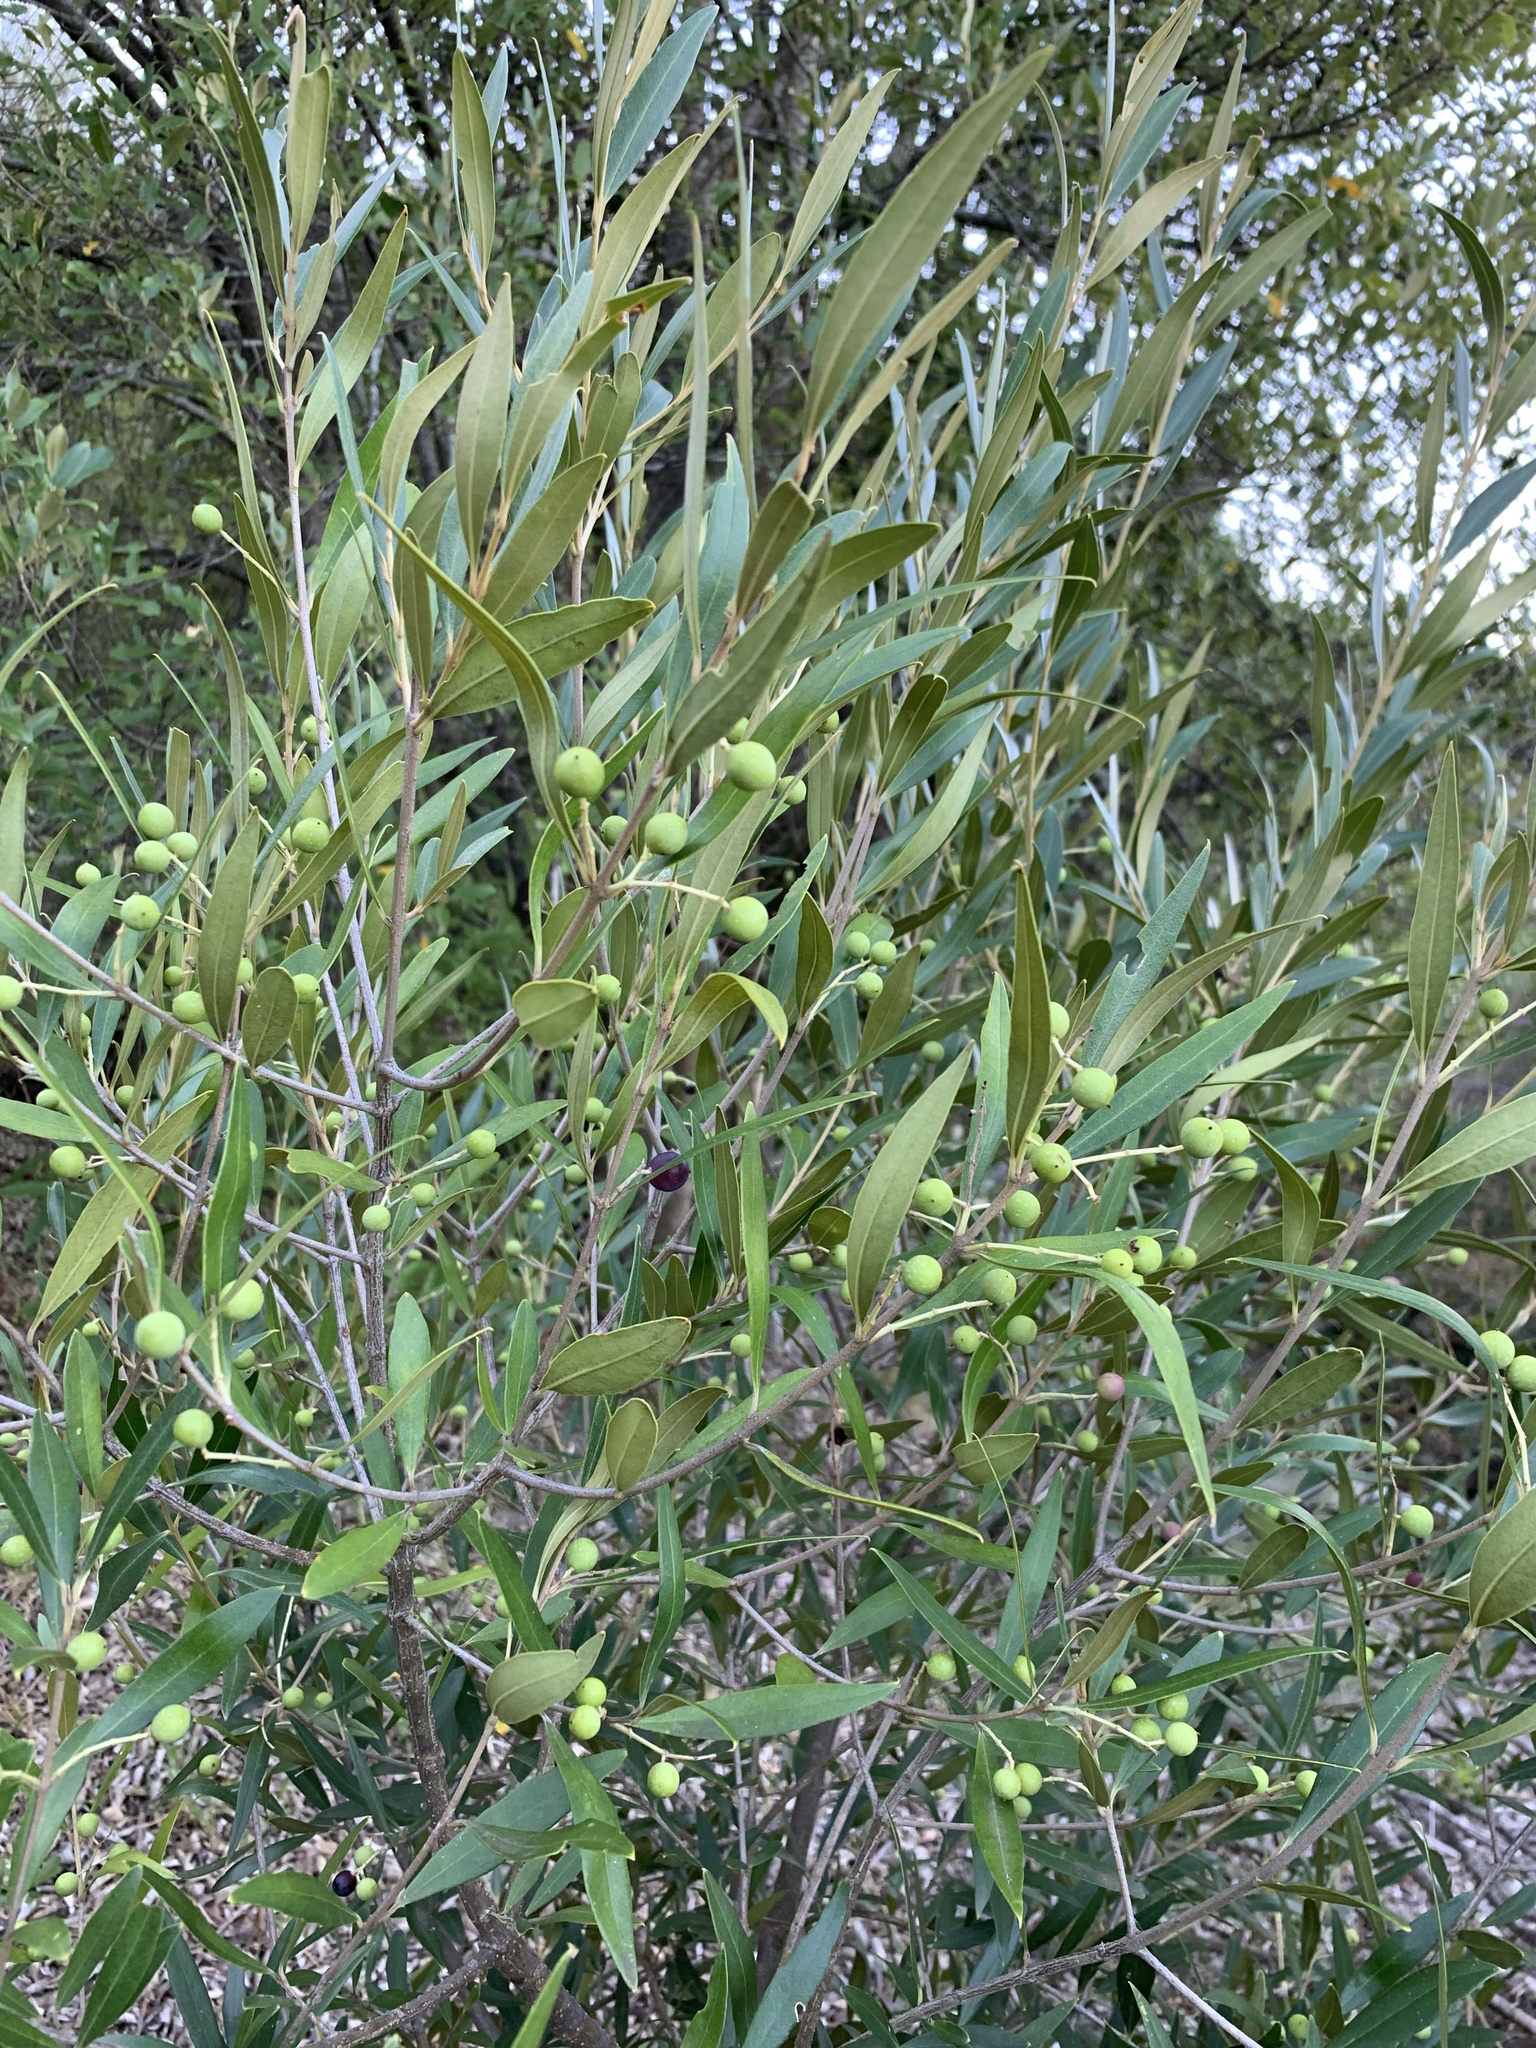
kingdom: Plantae
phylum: Tracheophyta
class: Magnoliopsida
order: Lamiales
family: Oleaceae
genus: Olea
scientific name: Olea europaea
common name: Olive
